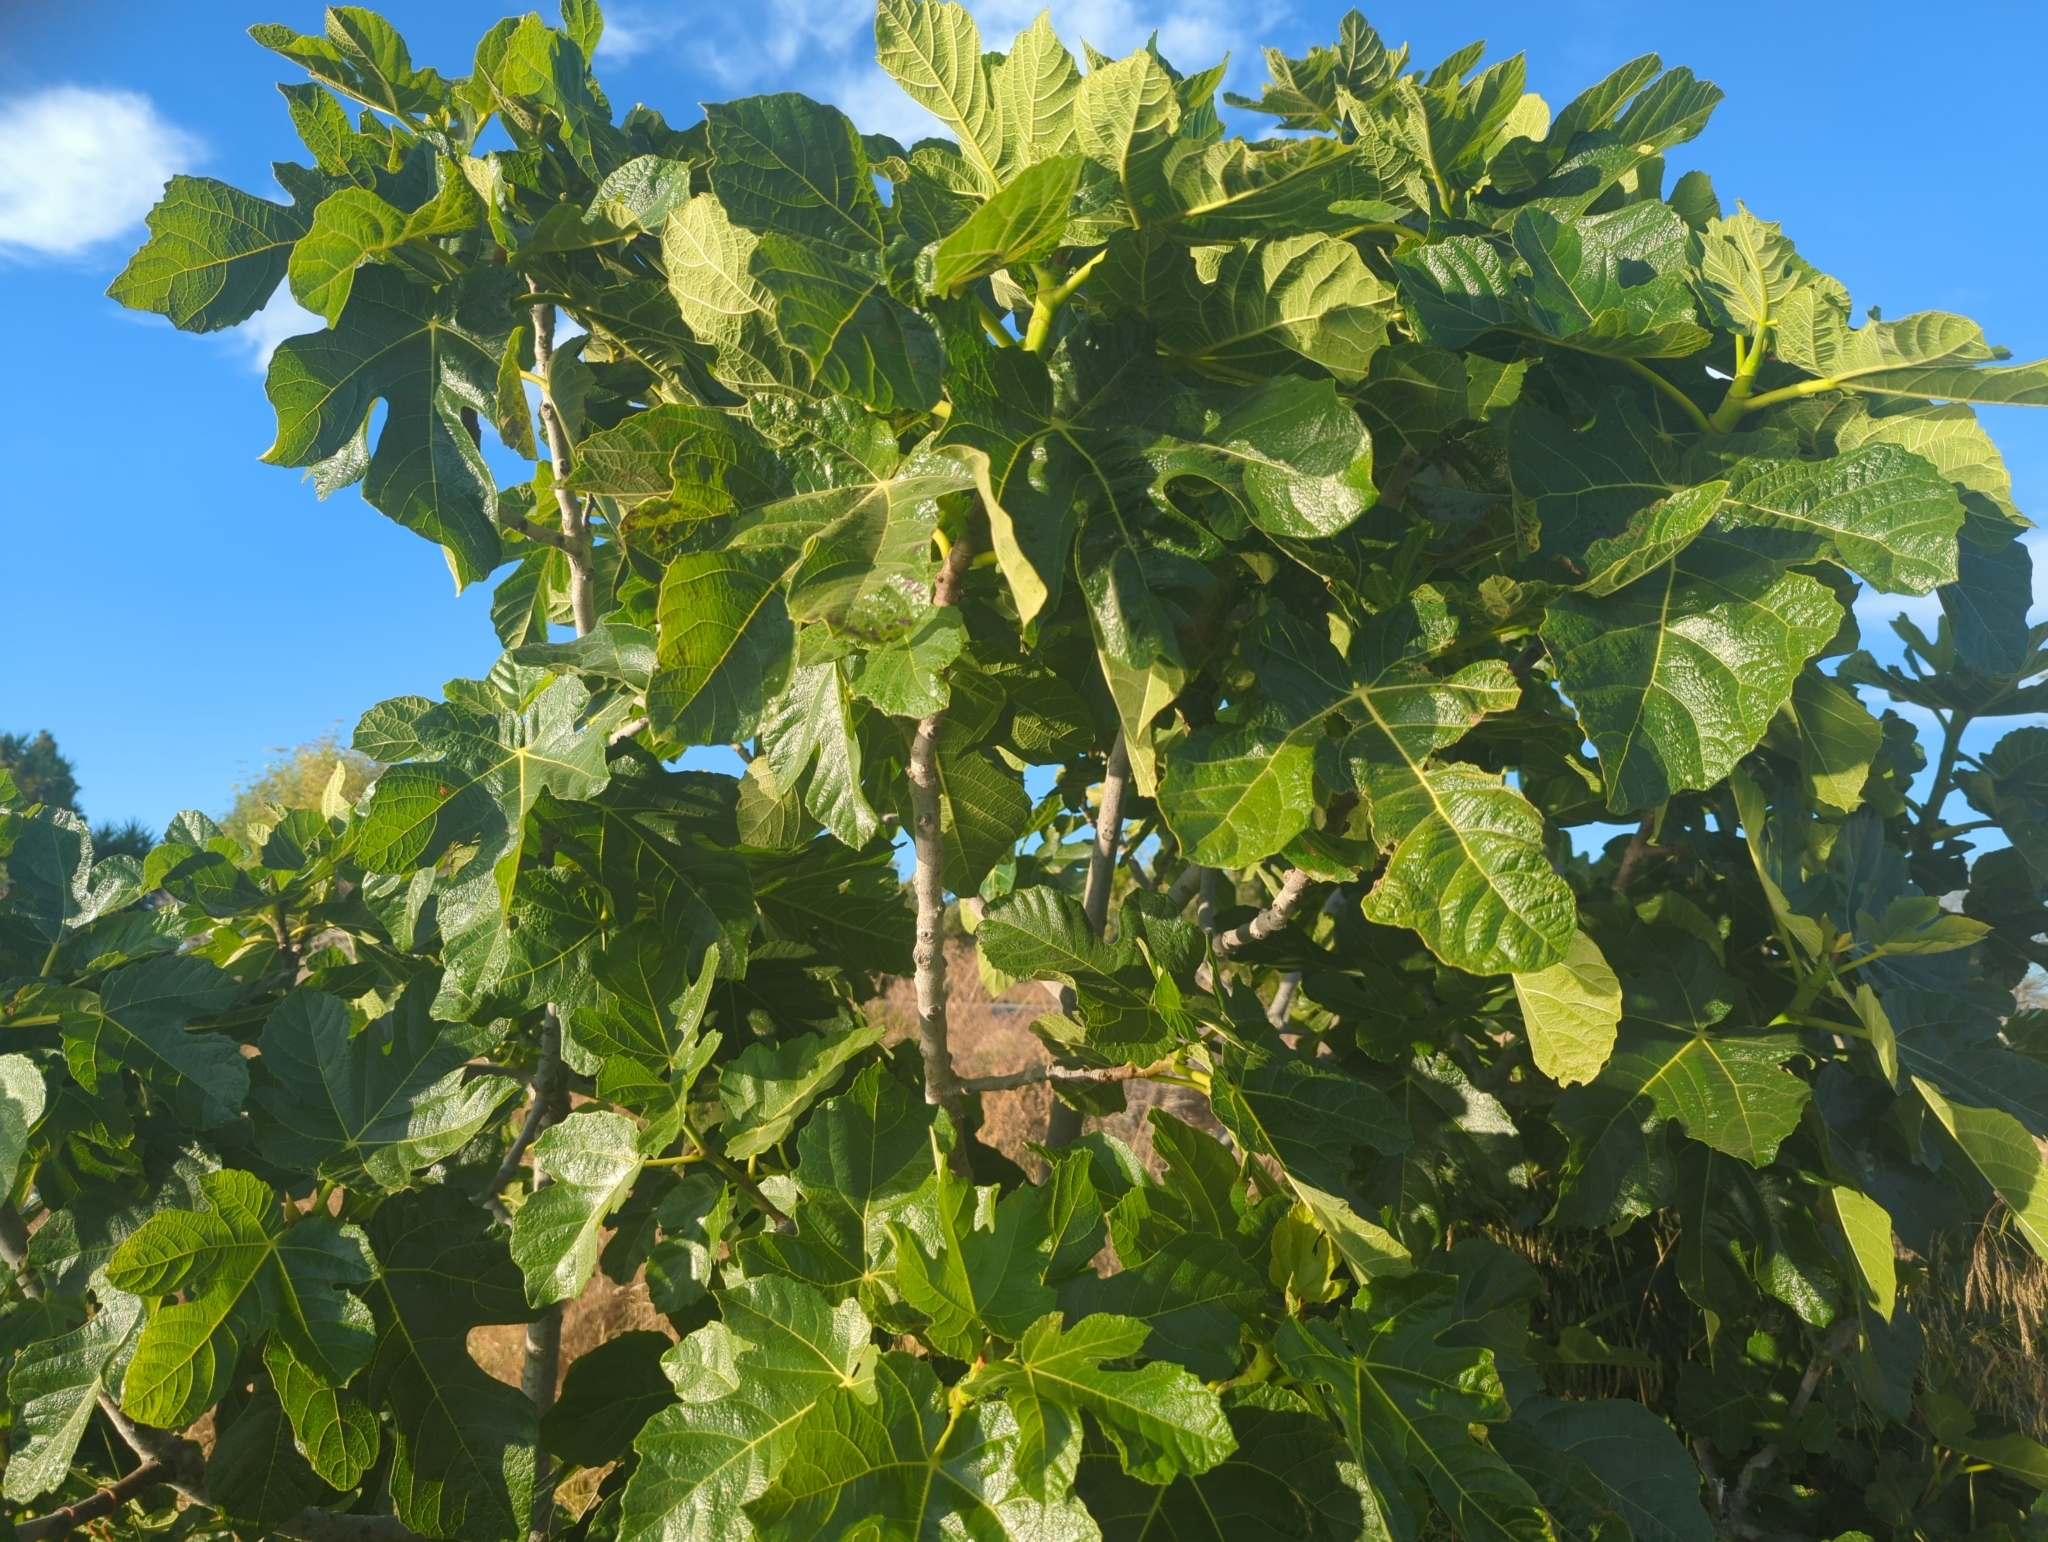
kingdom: Plantae
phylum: Tracheophyta
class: Magnoliopsida
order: Rosales
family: Moraceae
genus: Ficus
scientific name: Ficus carica
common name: Fig
